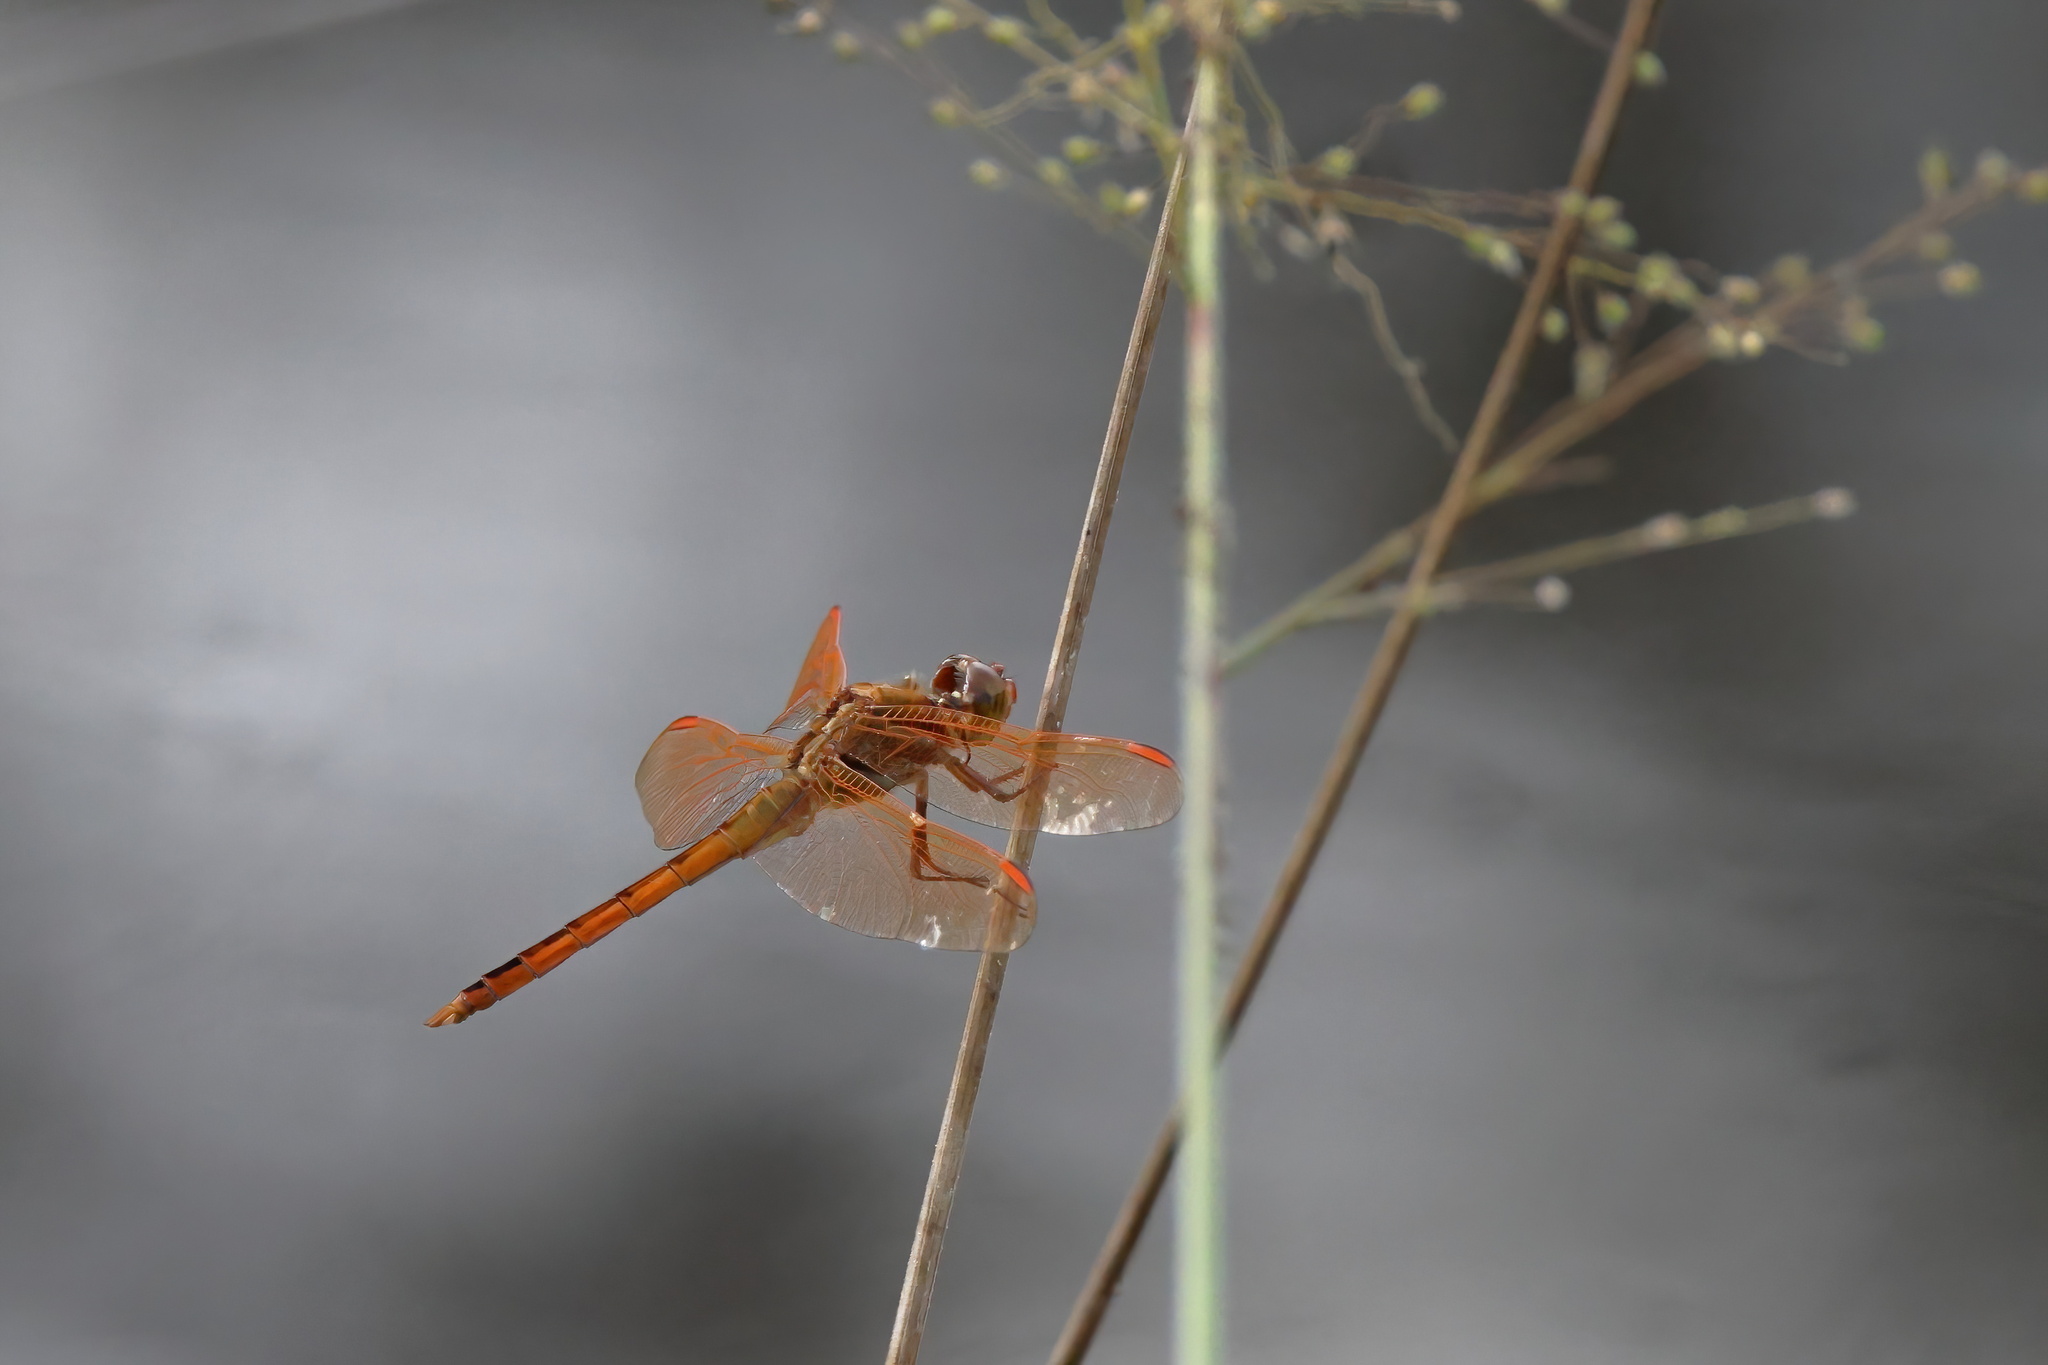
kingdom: Animalia
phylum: Arthropoda
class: Insecta
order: Odonata
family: Libellulidae
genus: Libellula
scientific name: Libellula auripennis
